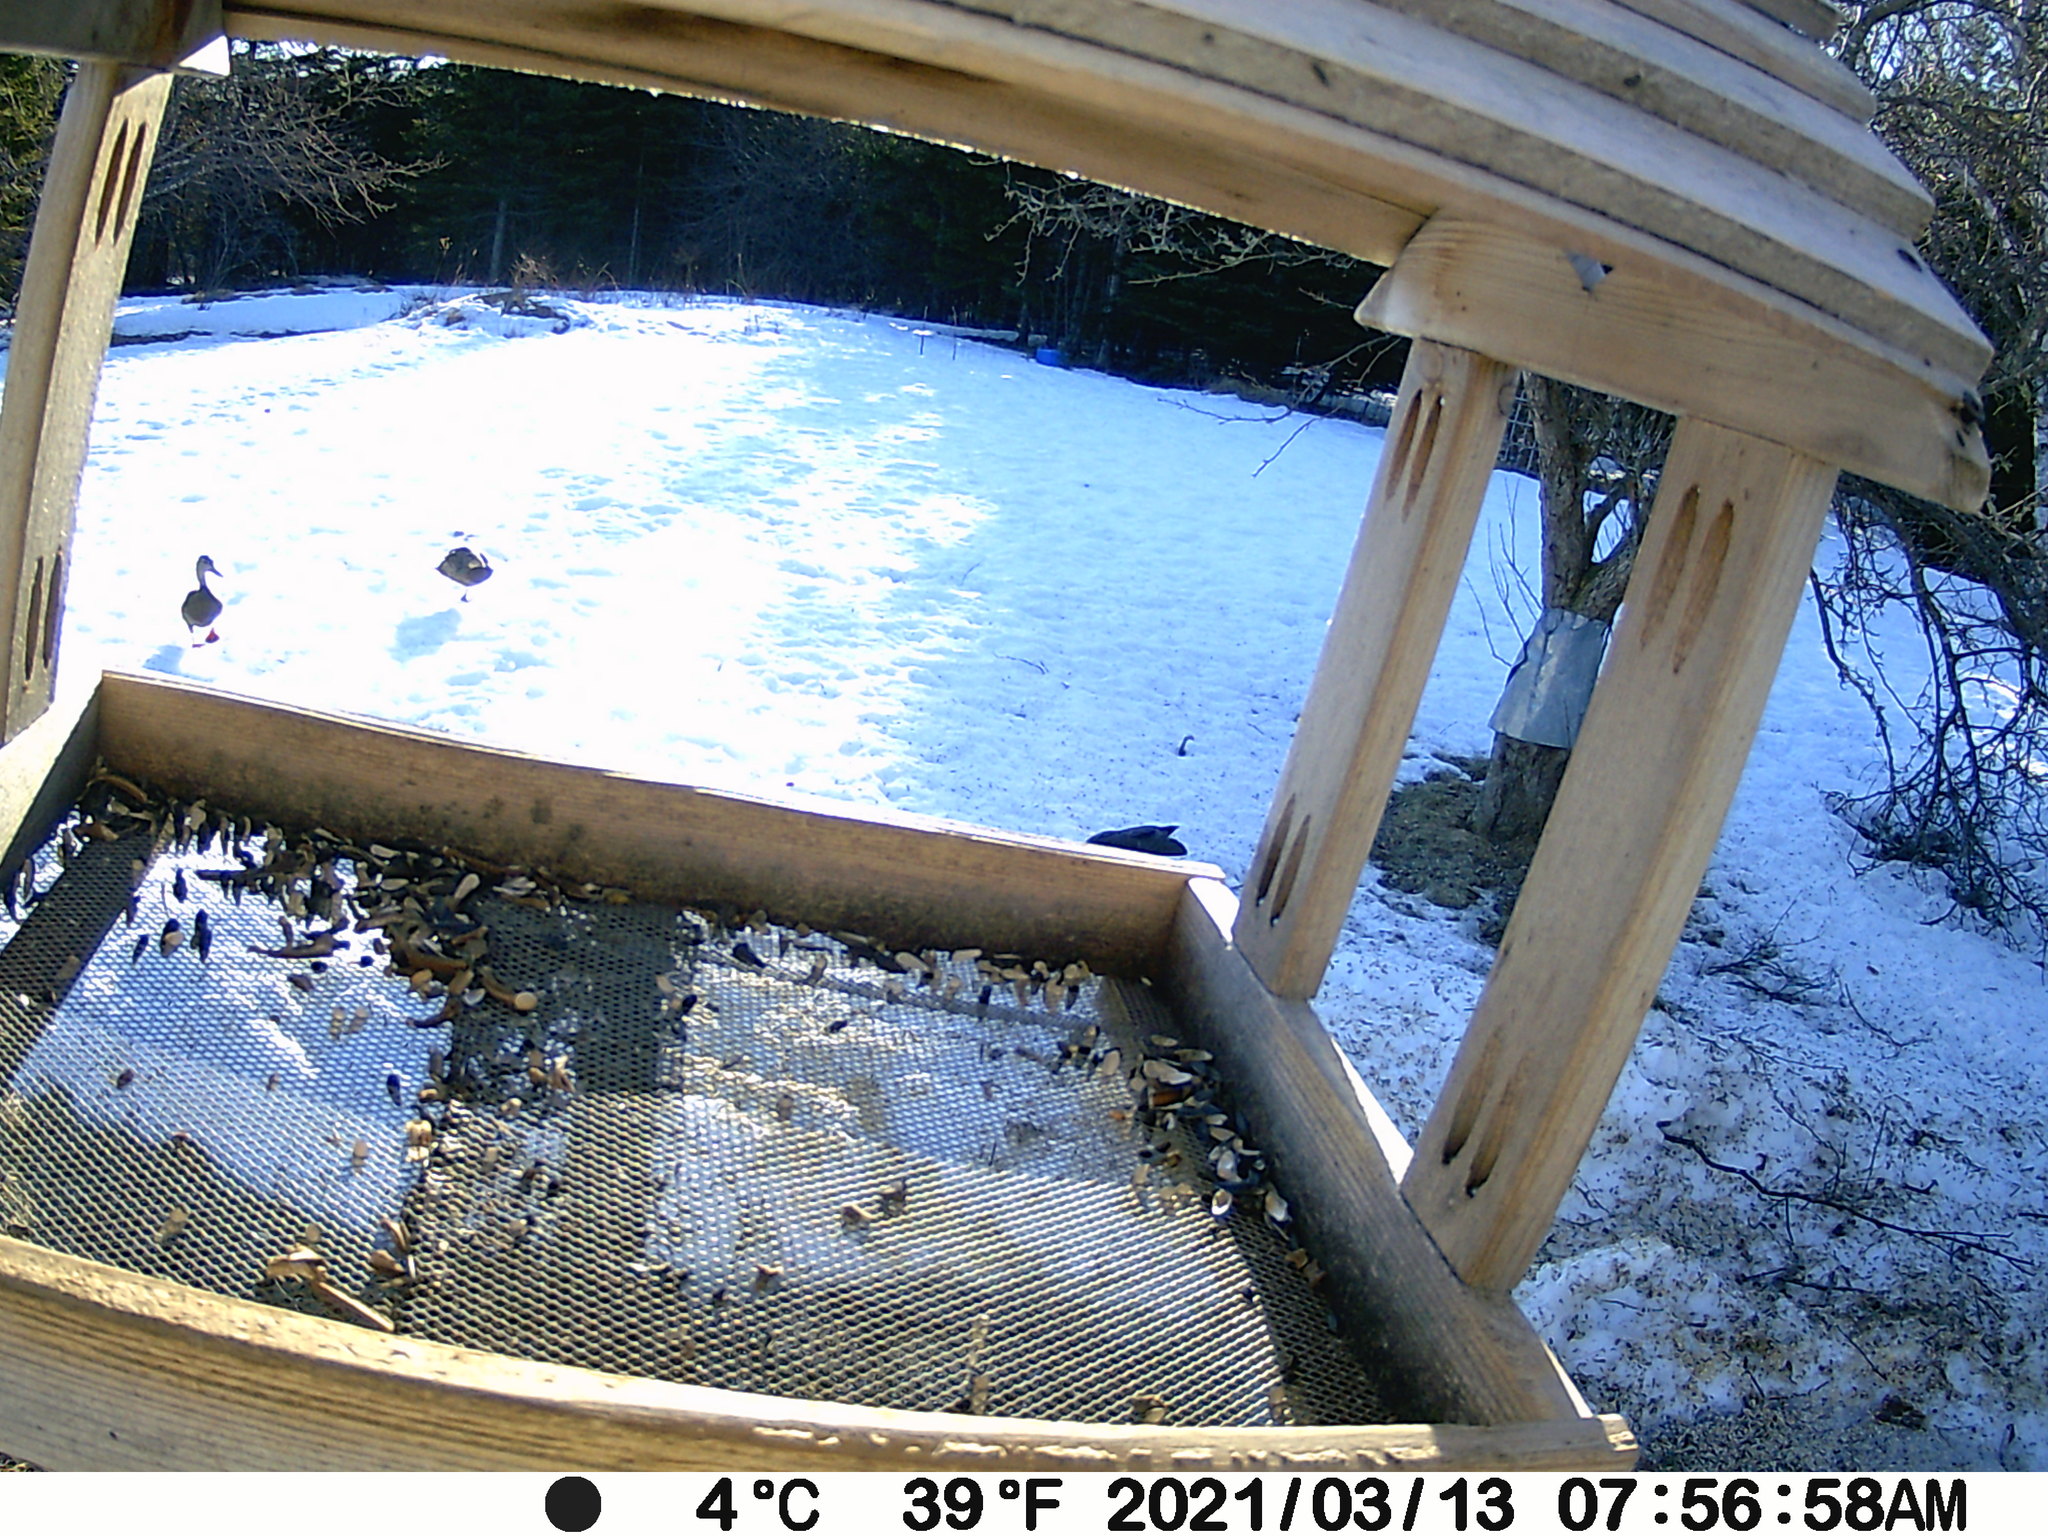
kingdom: Animalia
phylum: Chordata
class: Aves
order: Anseriformes
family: Anatidae
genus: Anas
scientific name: Anas rubripes
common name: American black duck
